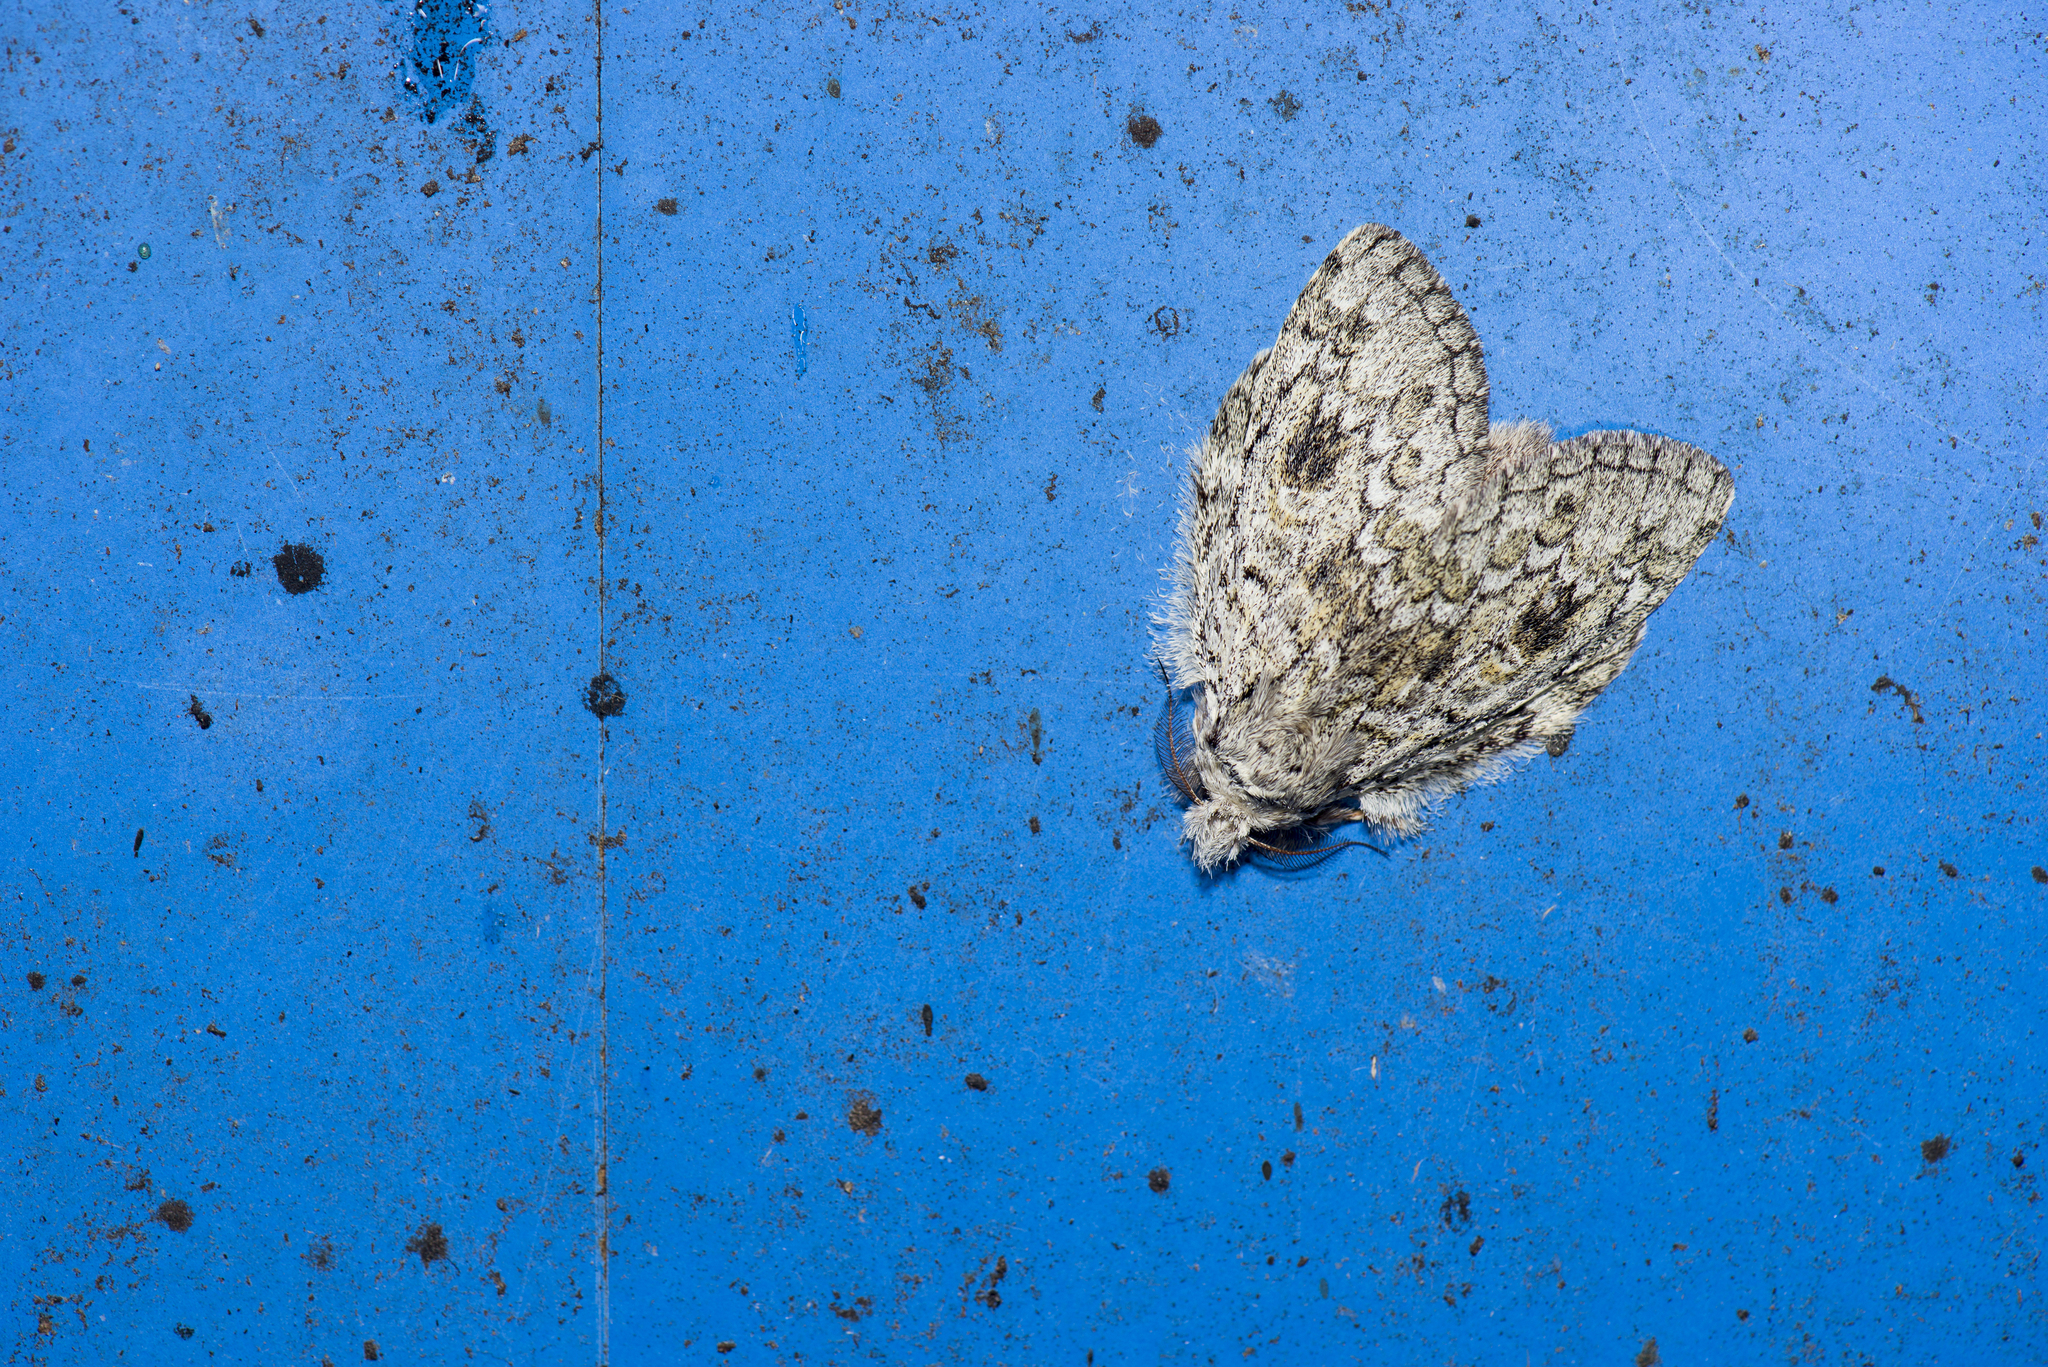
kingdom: Animalia
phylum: Arthropoda
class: Insecta
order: Lepidoptera
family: Notodontidae
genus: Syntypistis
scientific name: Syntypistis perdix
